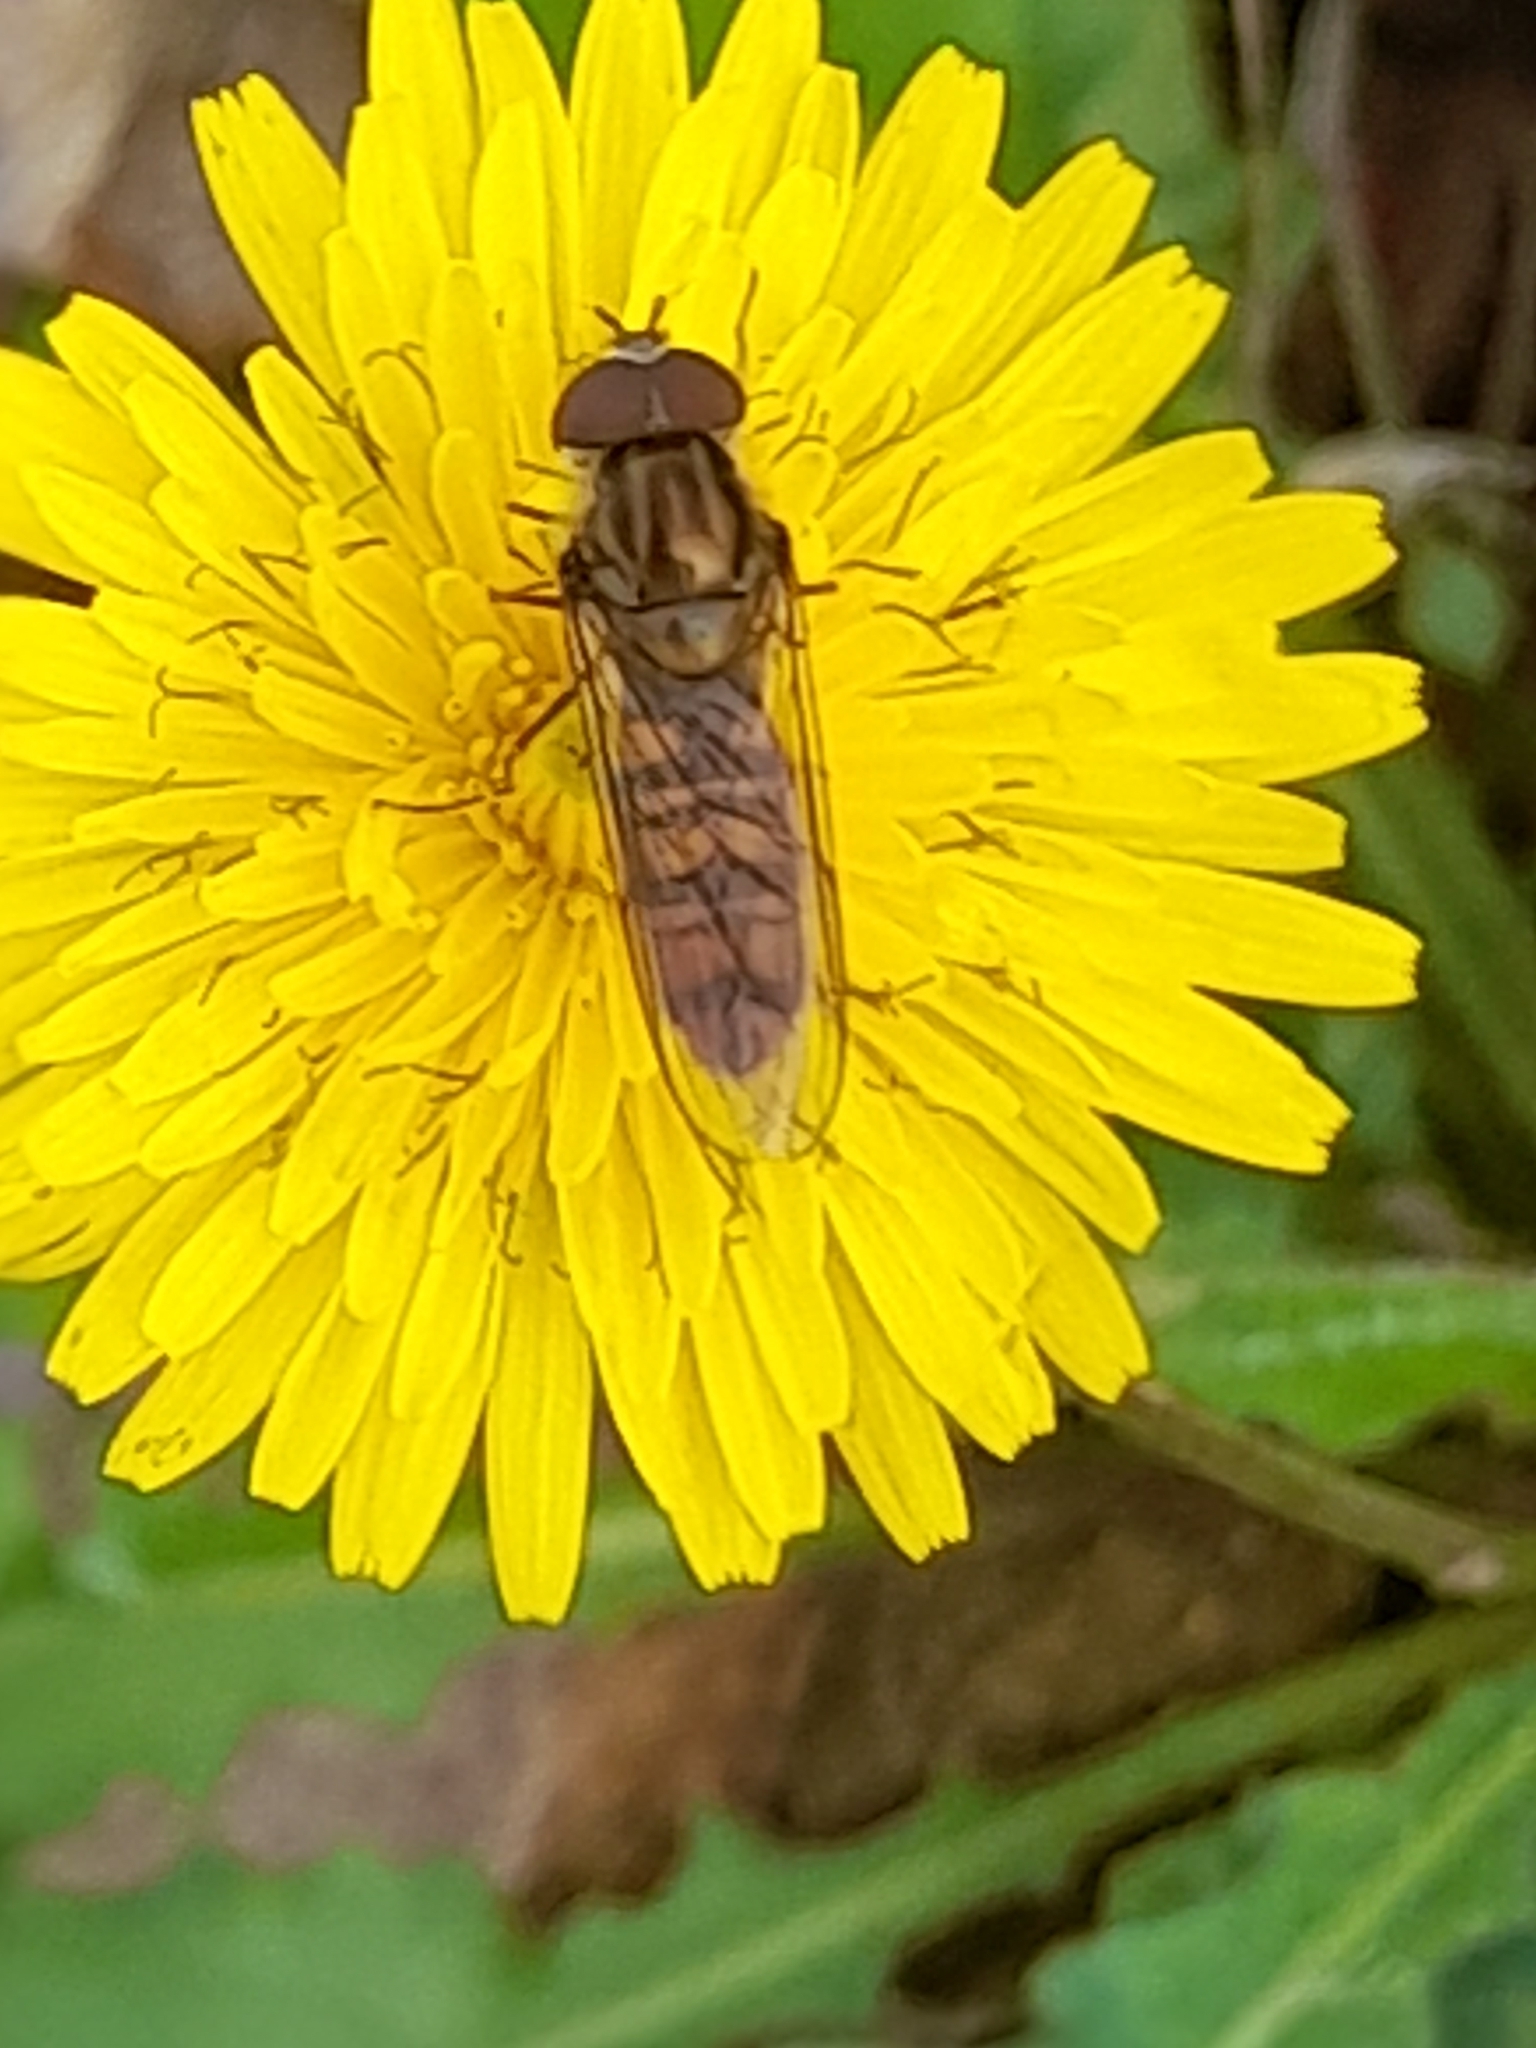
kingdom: Animalia
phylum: Arthropoda
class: Insecta
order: Diptera
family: Syrphidae
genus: Episyrphus
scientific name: Episyrphus balteatus
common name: Marmalade hoverfly
